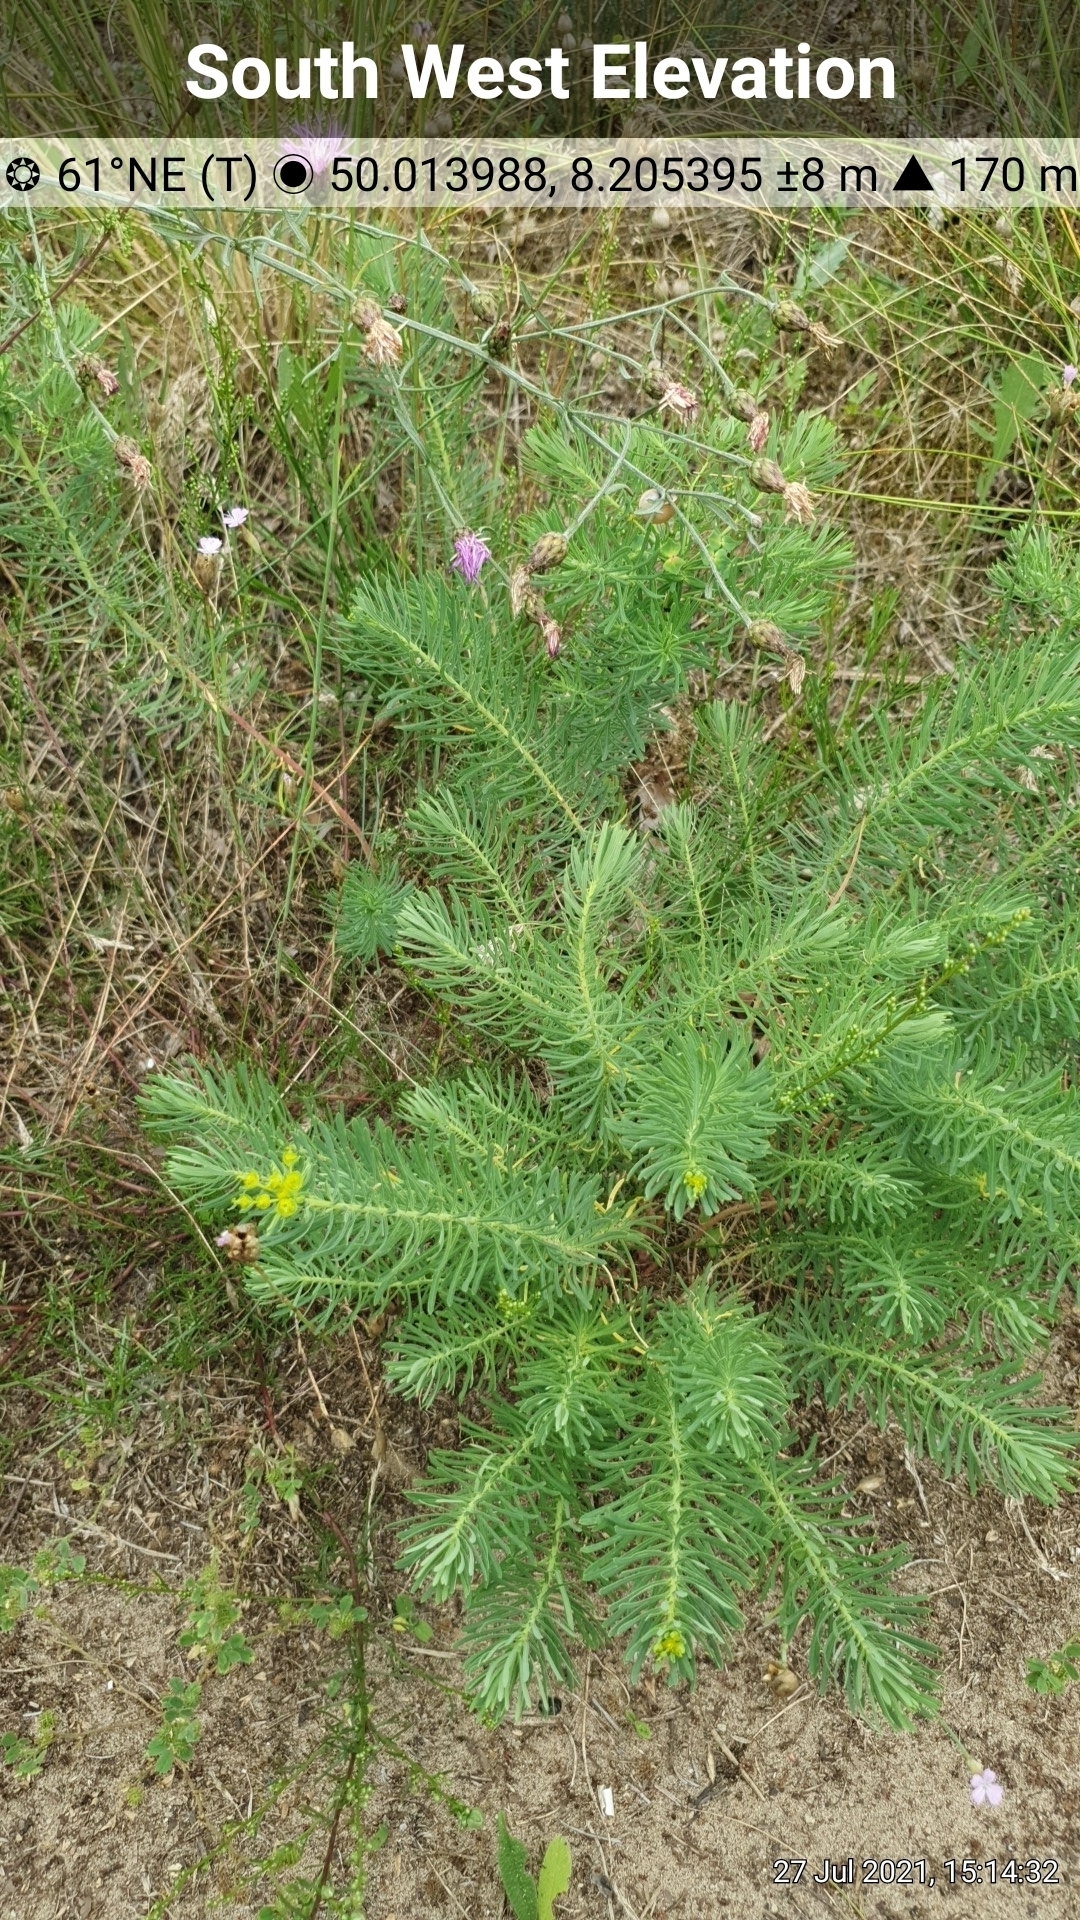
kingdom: Plantae
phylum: Tracheophyta
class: Magnoliopsida
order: Malpighiales
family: Euphorbiaceae
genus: Euphorbia
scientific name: Euphorbia cyparissias
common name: Cypress spurge
